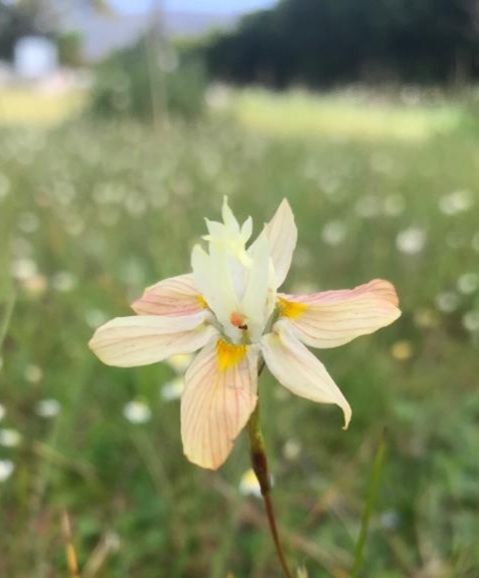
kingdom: Plantae
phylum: Tracheophyta
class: Liliopsida
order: Asparagales
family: Iridaceae
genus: Moraea
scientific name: Moraea gawleri
